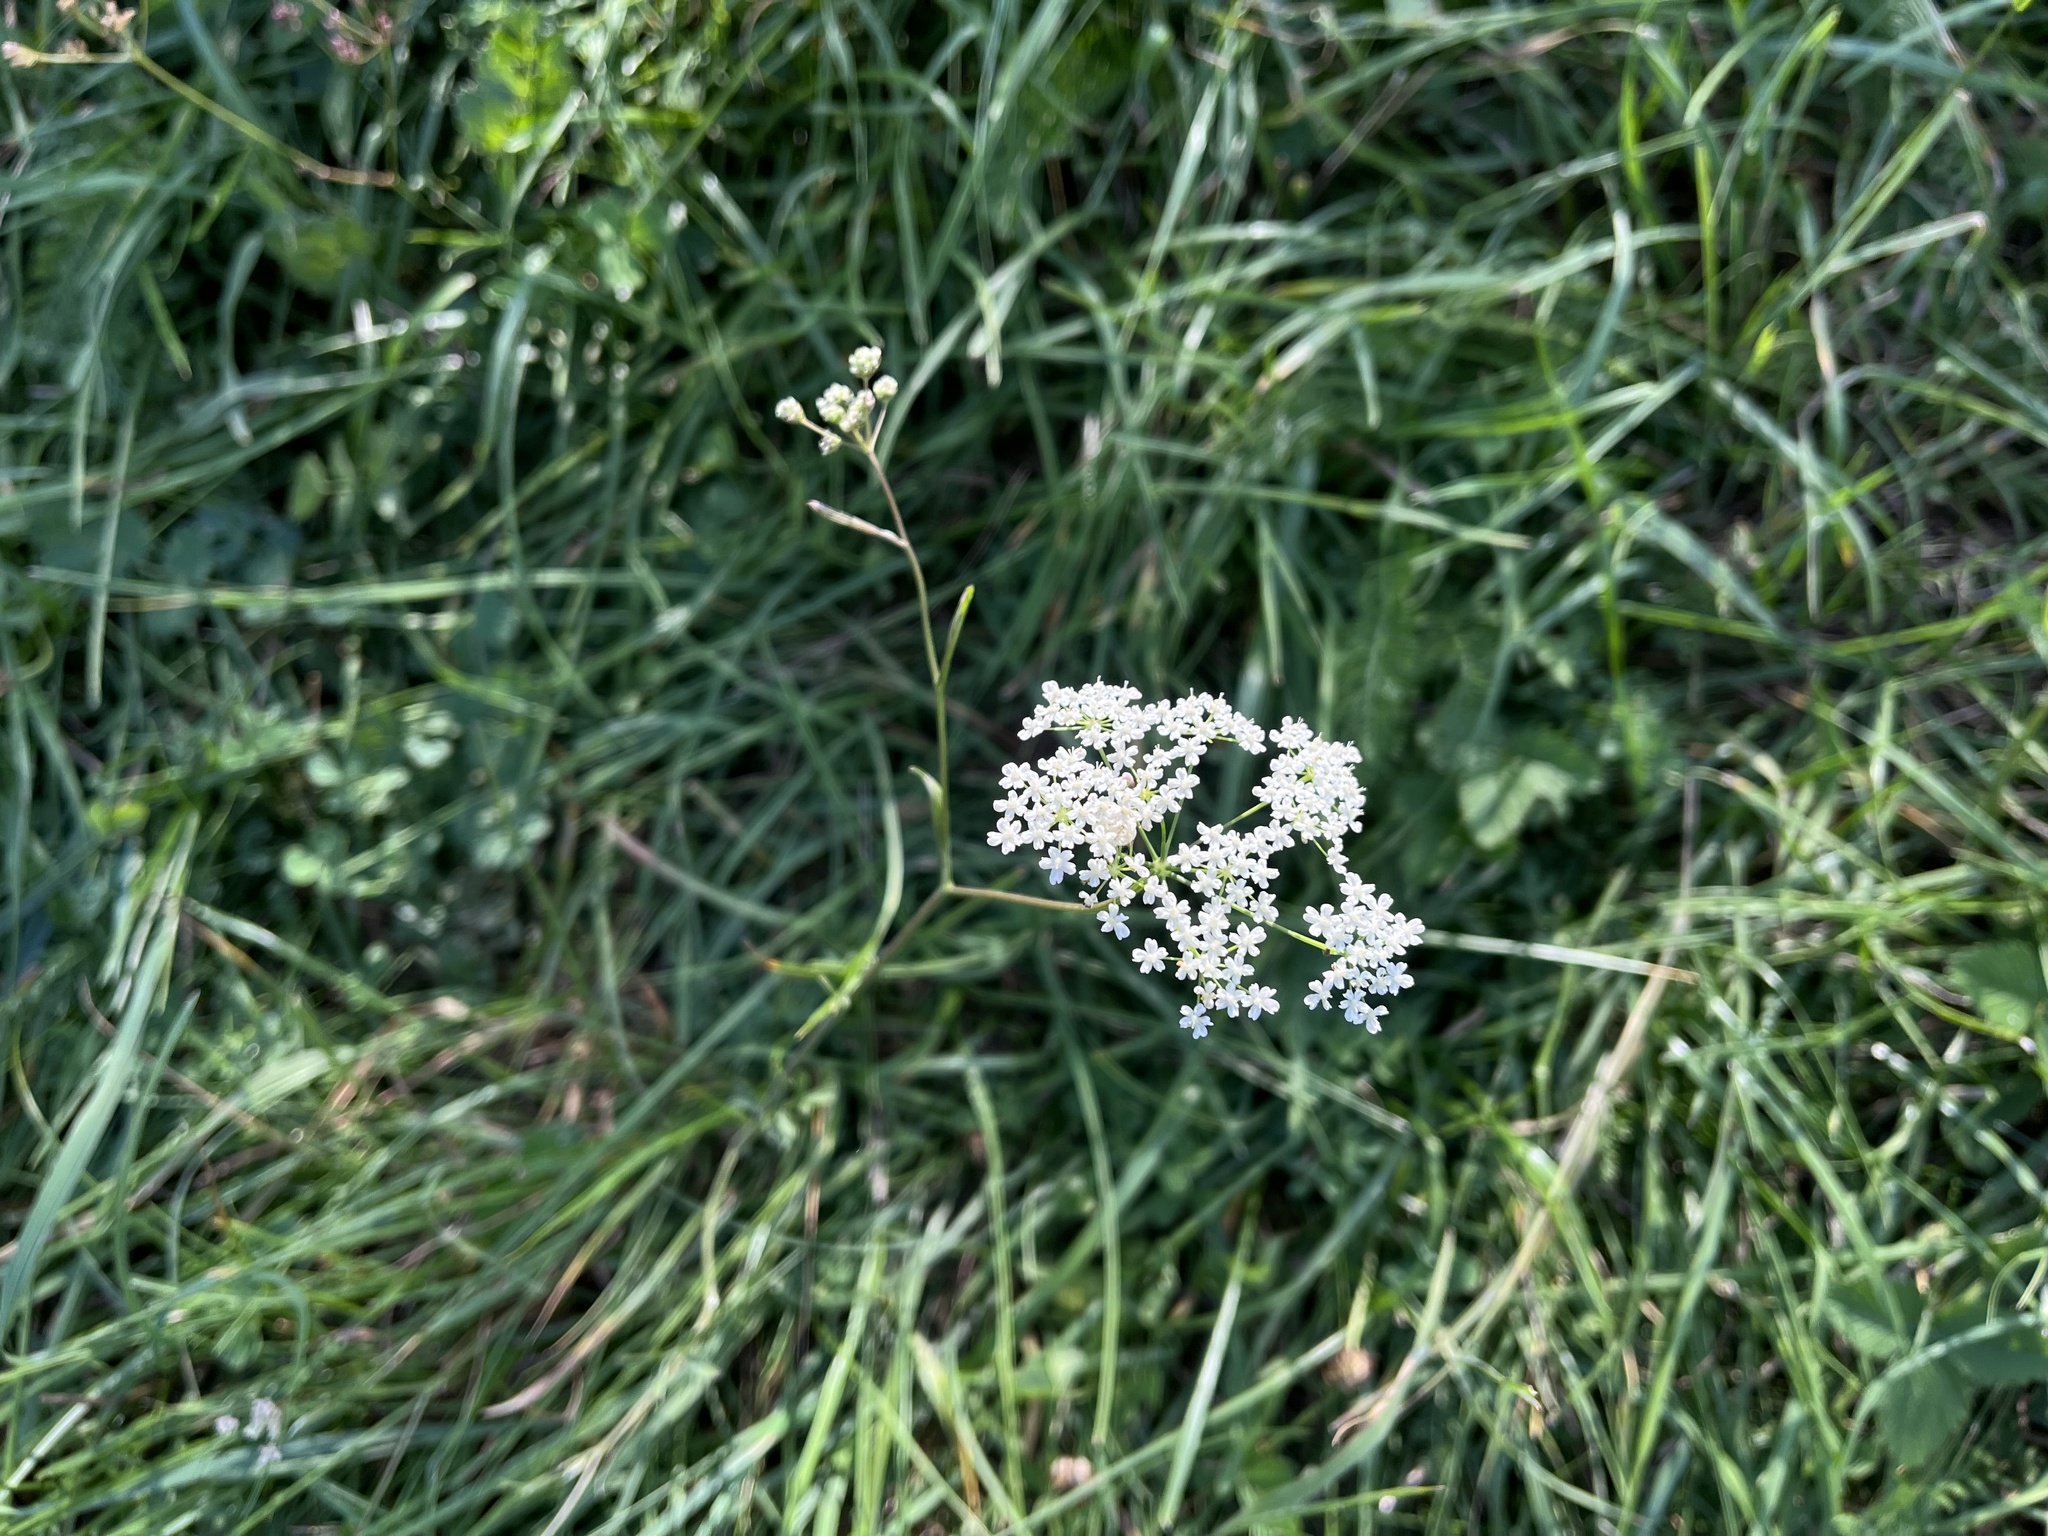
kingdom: Plantae
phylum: Tracheophyta
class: Magnoliopsida
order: Apiales
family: Apiaceae
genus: Pimpinella
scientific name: Pimpinella saxifraga
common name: Burnet-saxifrage
